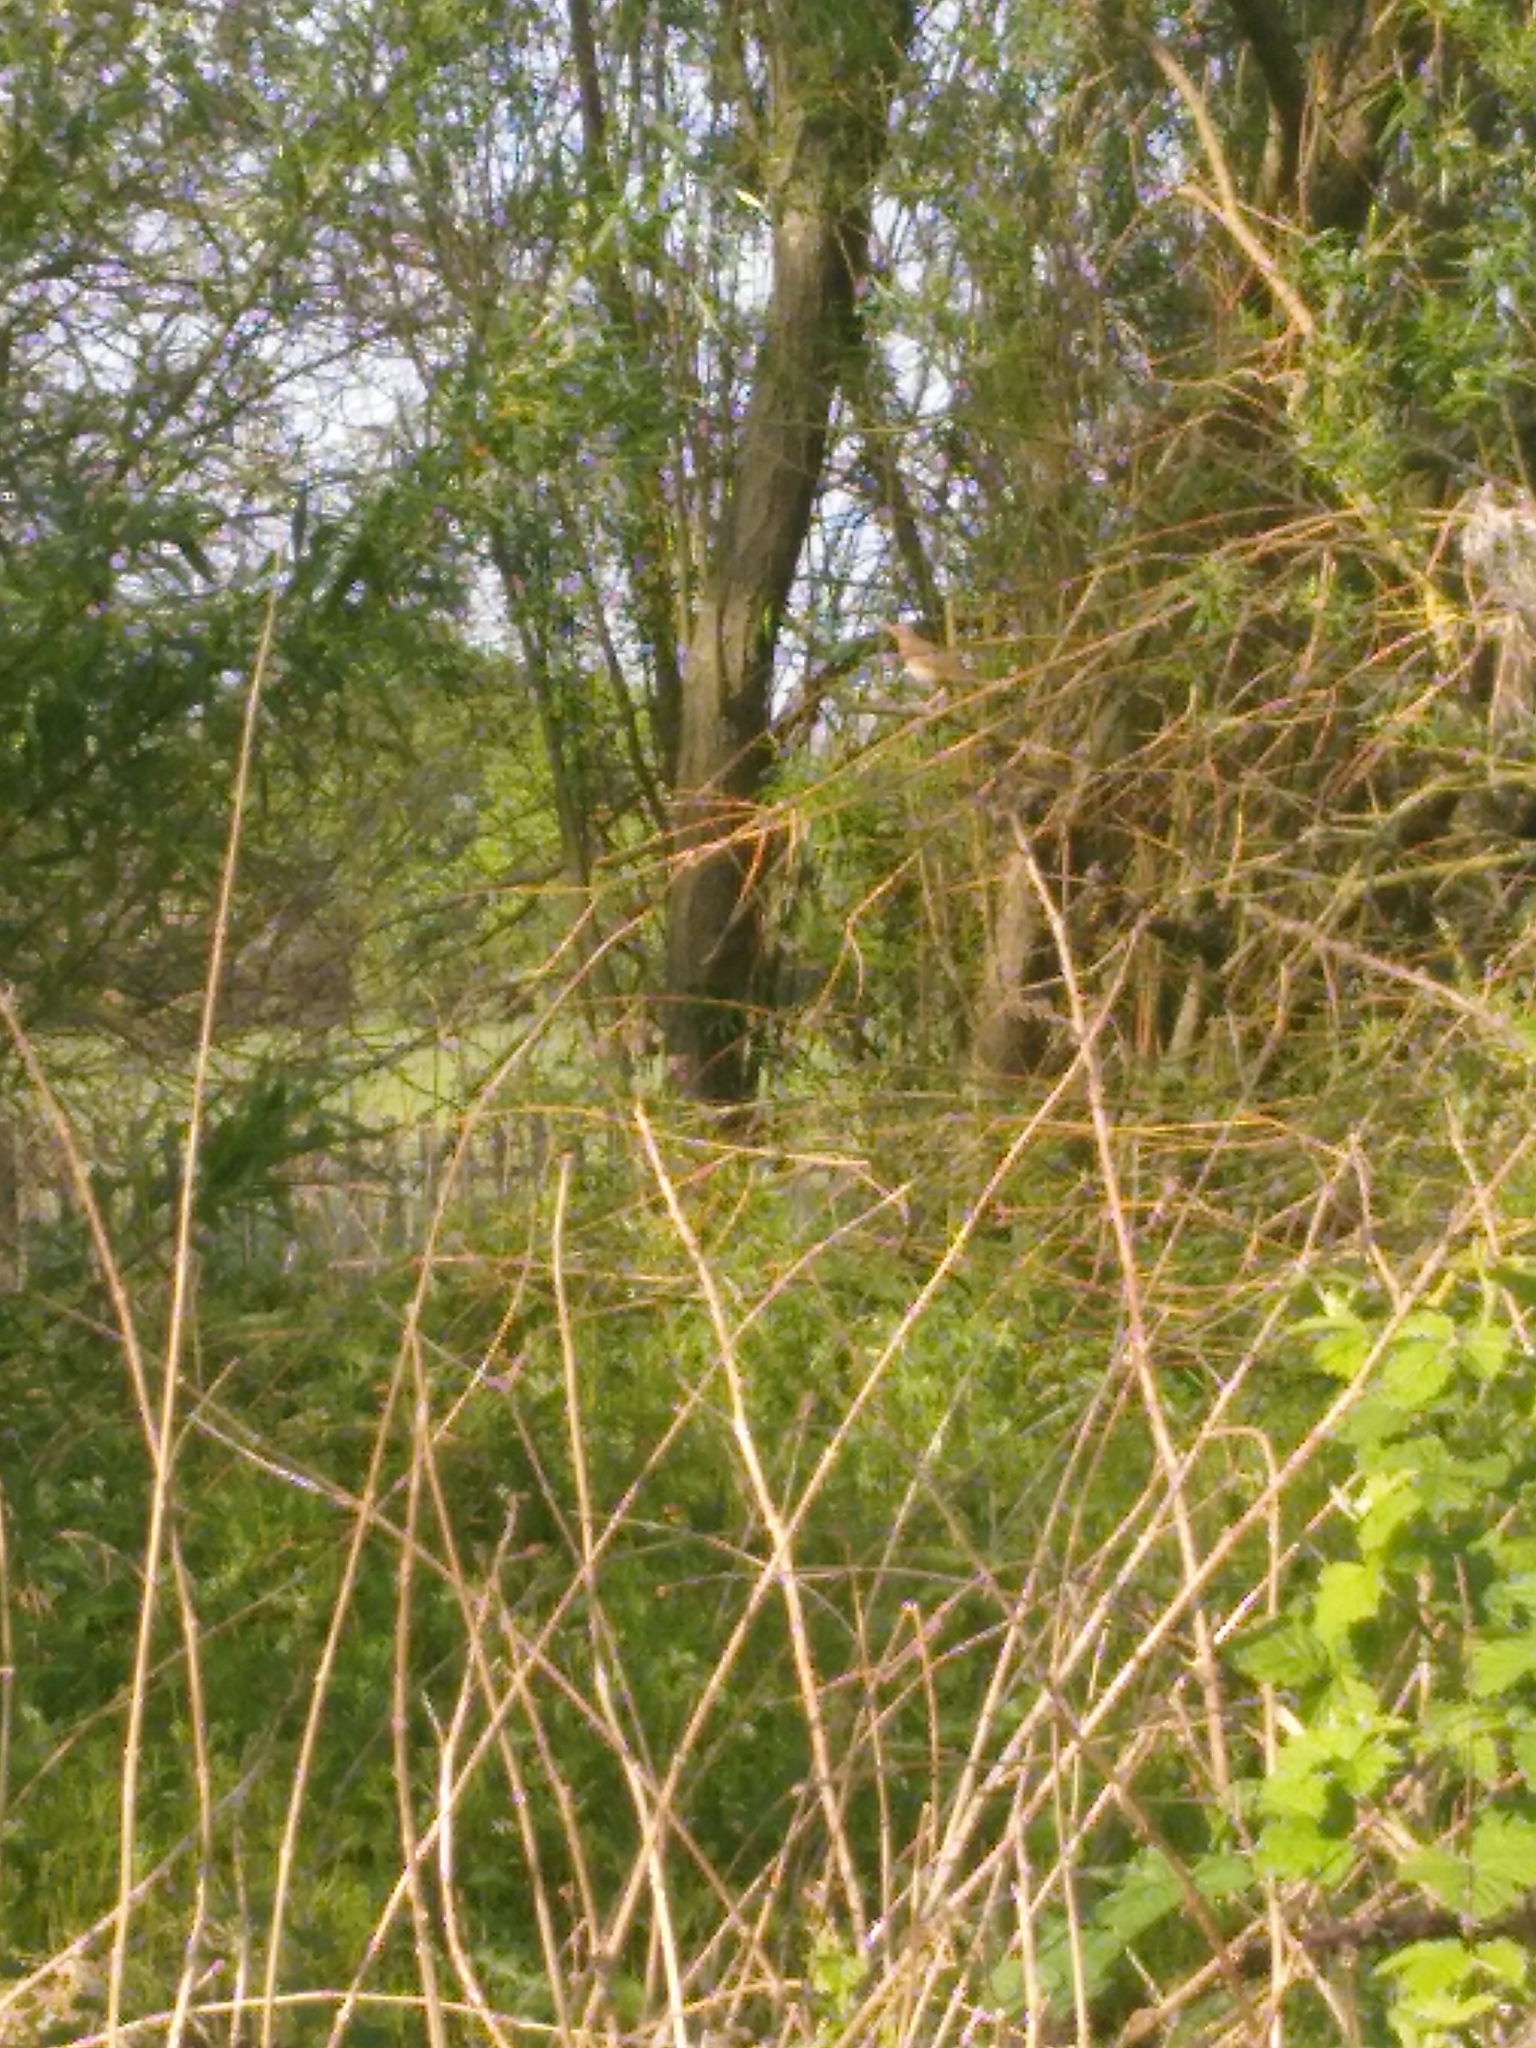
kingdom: Animalia
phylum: Chordata
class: Aves
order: Passeriformes
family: Turdidae
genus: Turdus
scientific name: Turdus philomelos
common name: Song thrush
